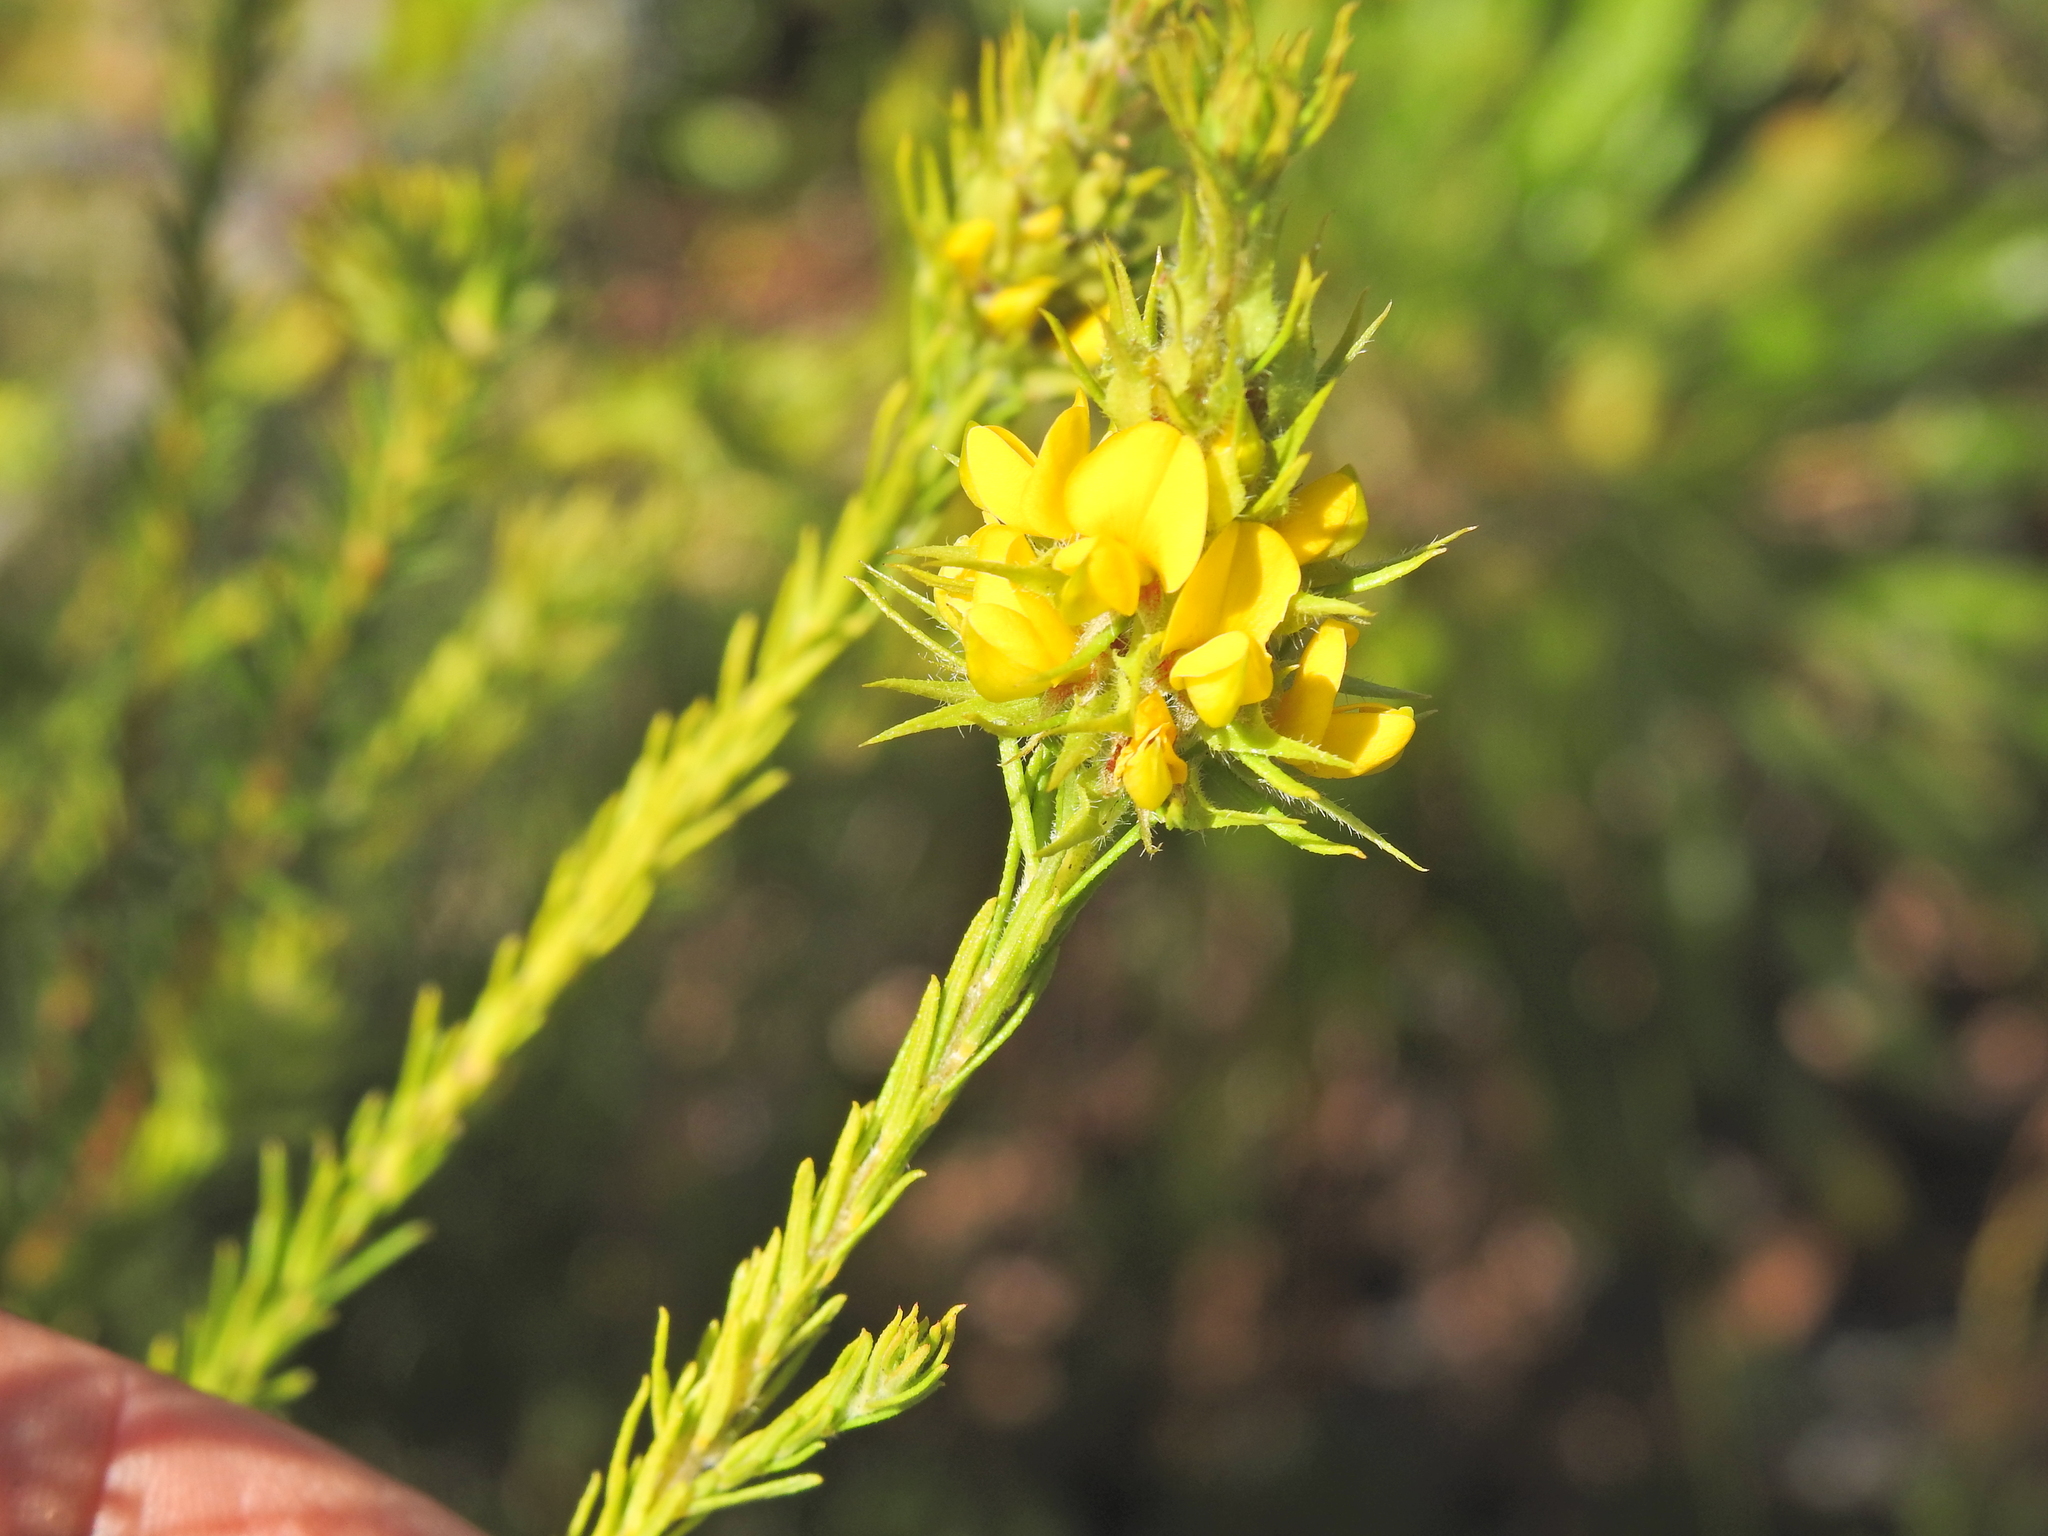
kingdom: Plantae
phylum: Tracheophyta
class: Magnoliopsida
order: Fabales
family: Fabaceae
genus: Phyllota
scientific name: Phyllota phylicoides
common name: Heath phyllota
